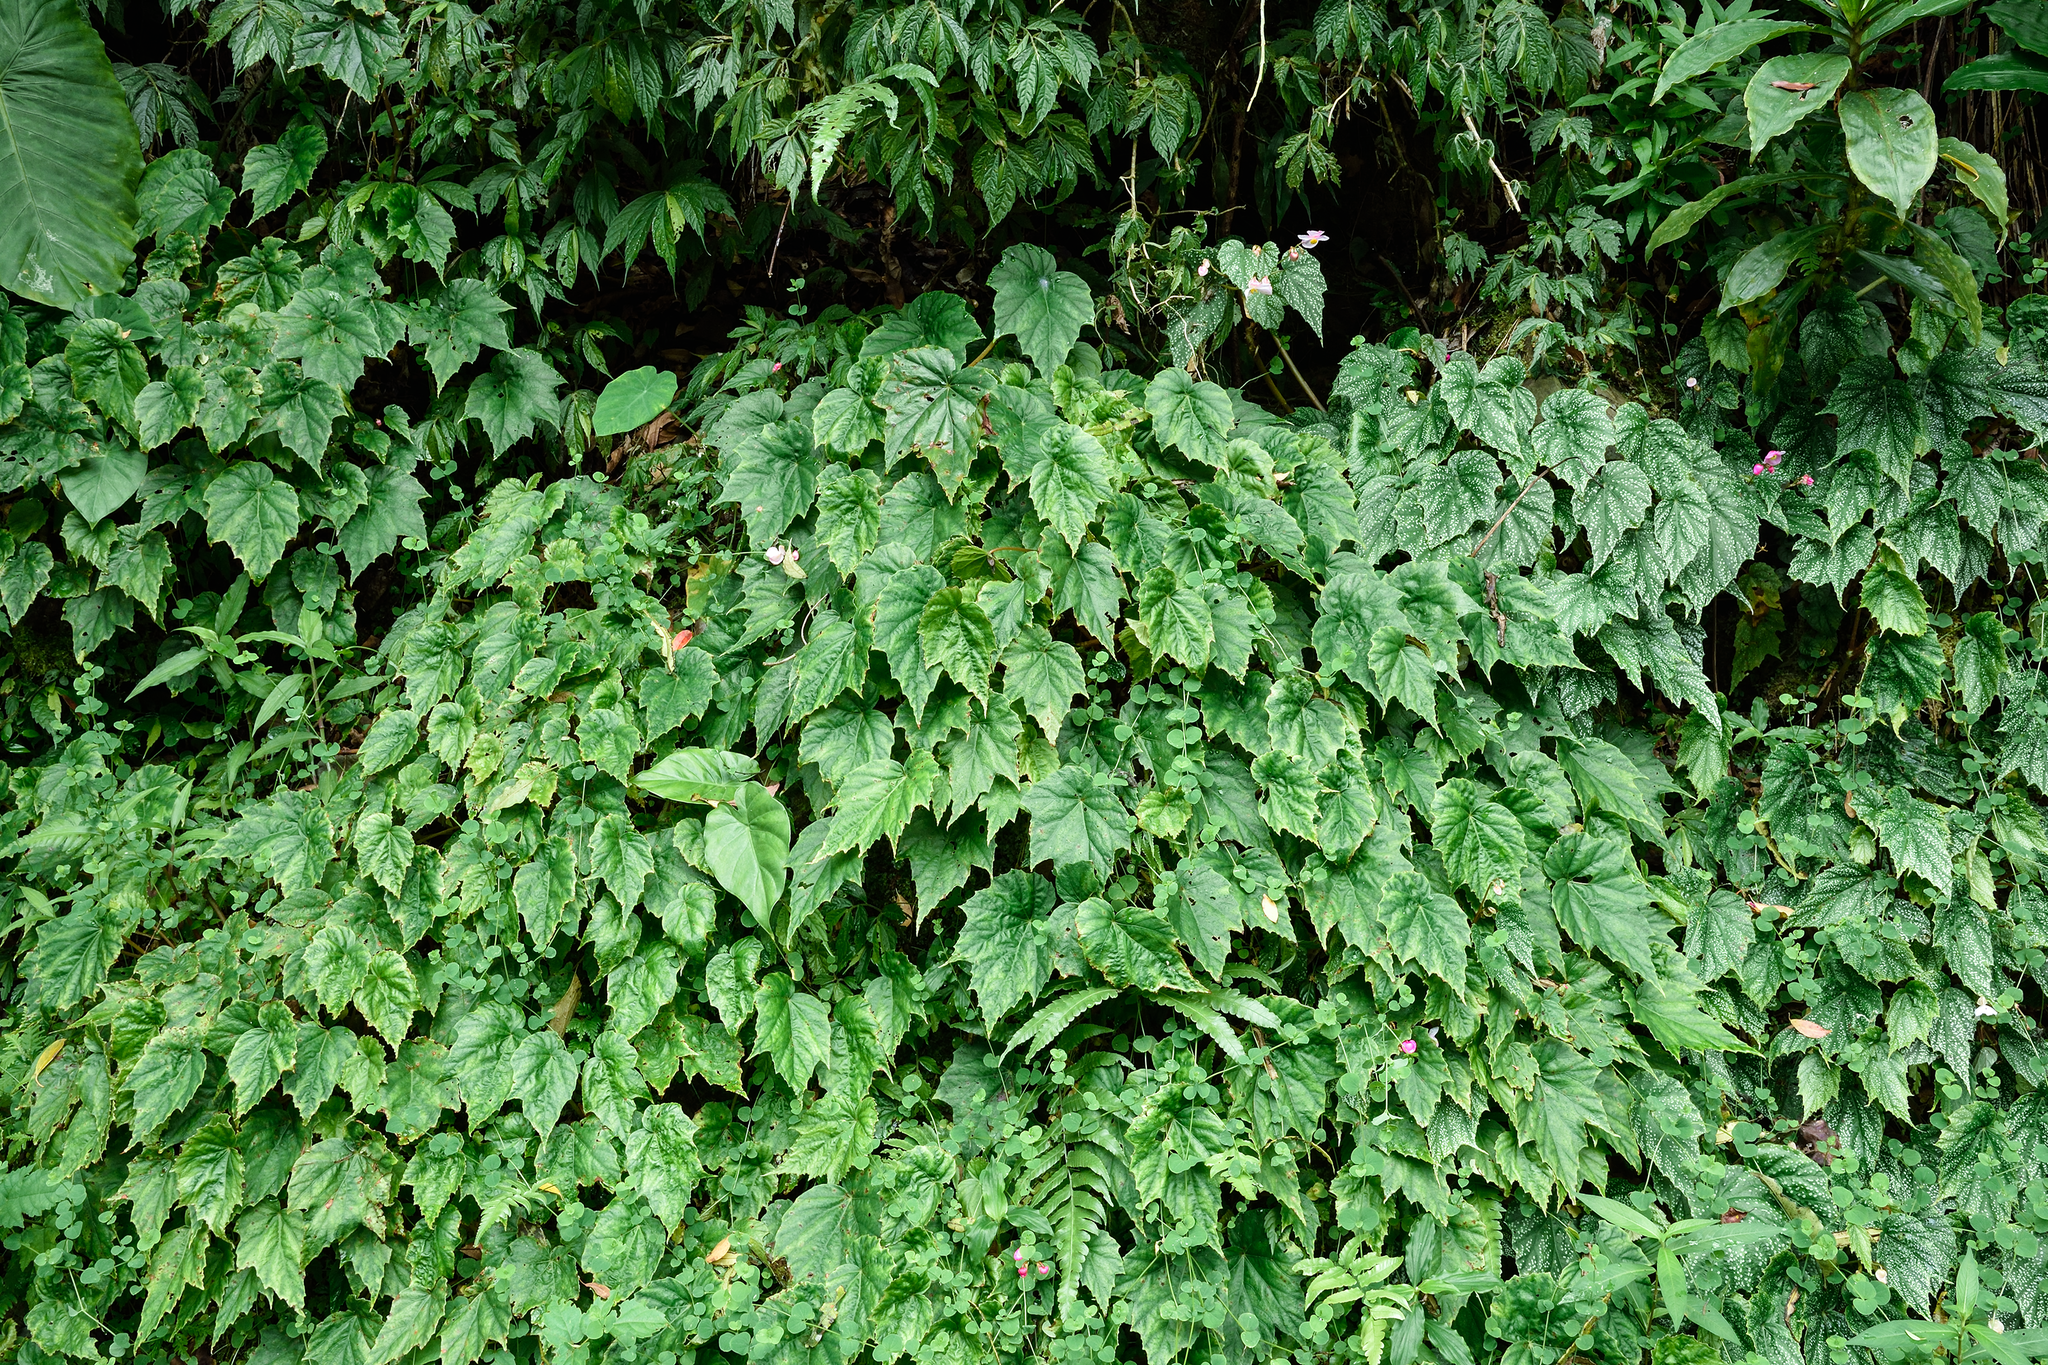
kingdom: Plantae
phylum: Tracheophyta
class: Magnoliopsida
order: Cucurbitales
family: Begoniaceae
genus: Begonia
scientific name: Begonia formosana
